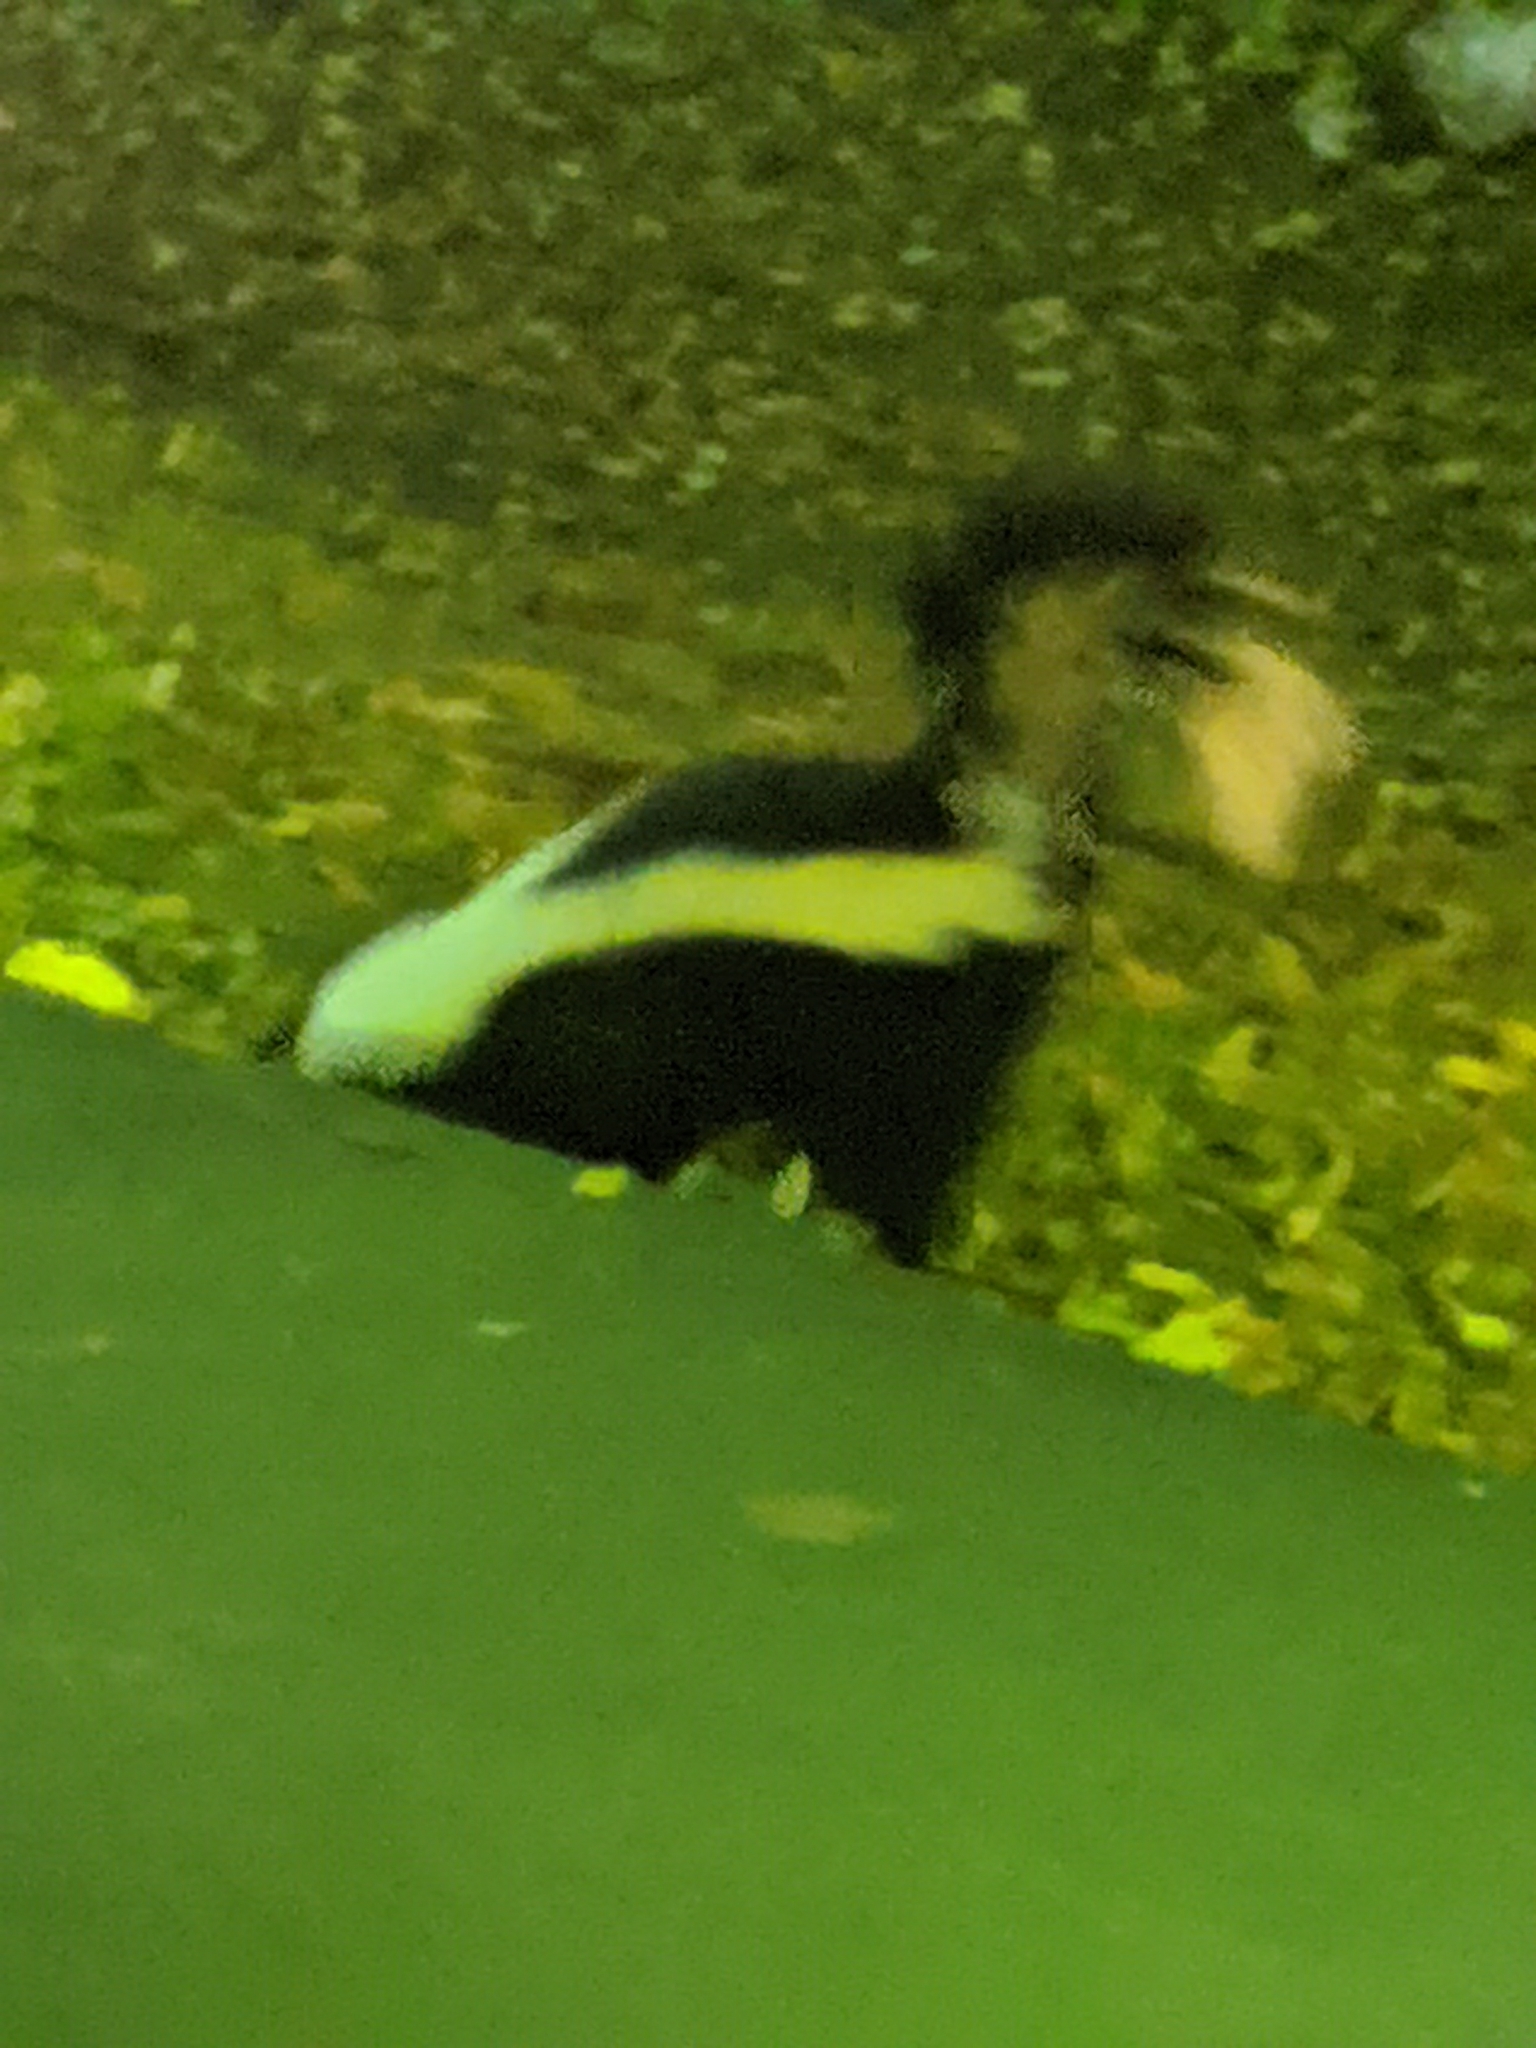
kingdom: Animalia
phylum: Chordata
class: Mammalia
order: Carnivora
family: Mephitidae
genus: Mephitis
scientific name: Mephitis mephitis
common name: Striped skunk
